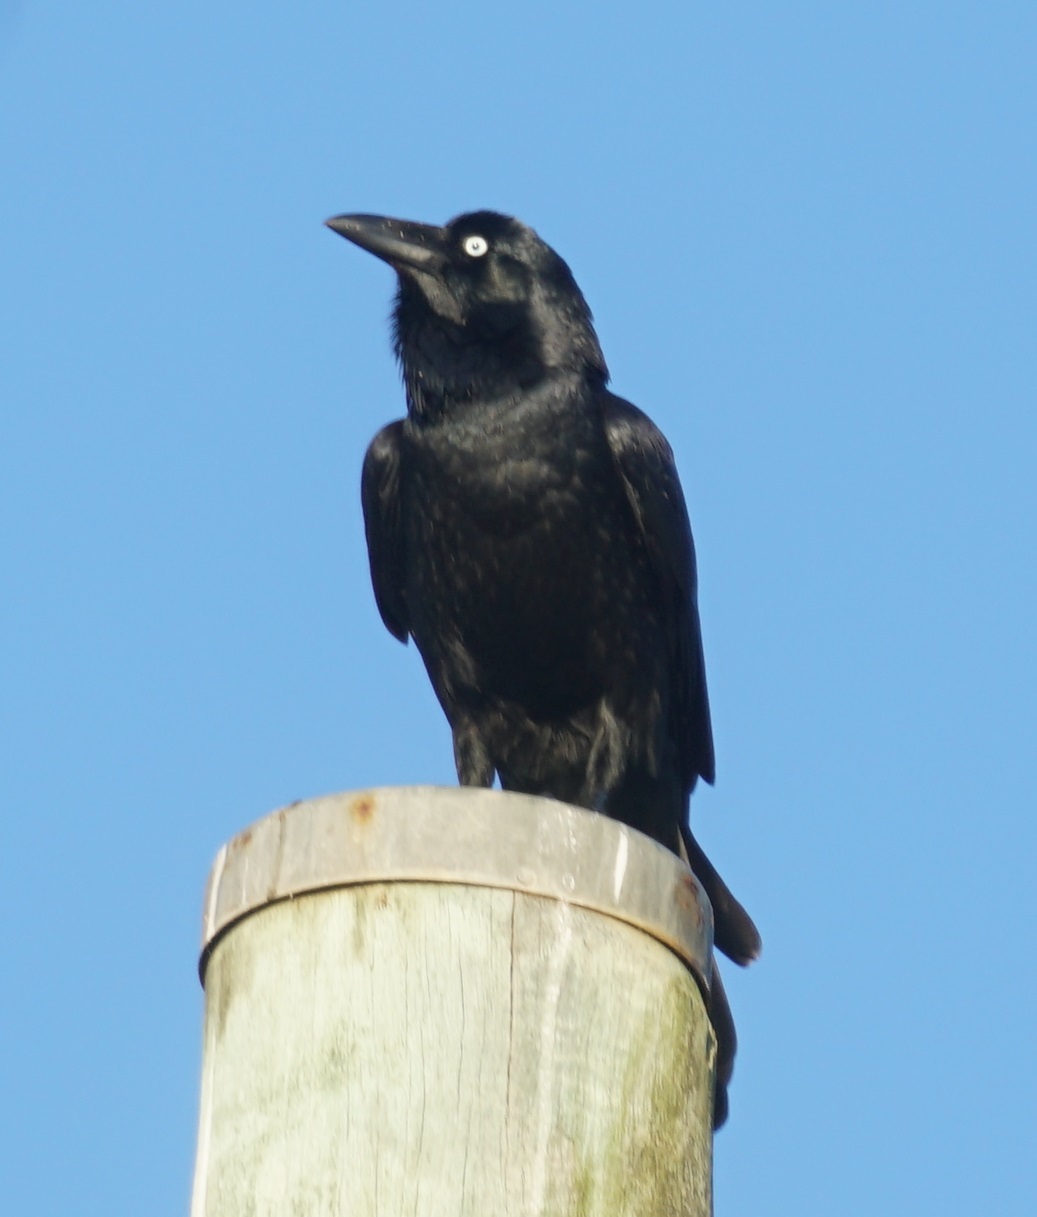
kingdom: Animalia
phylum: Chordata
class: Aves
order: Passeriformes
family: Corvidae
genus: Corvus
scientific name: Corvus coronoides
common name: Australian raven
